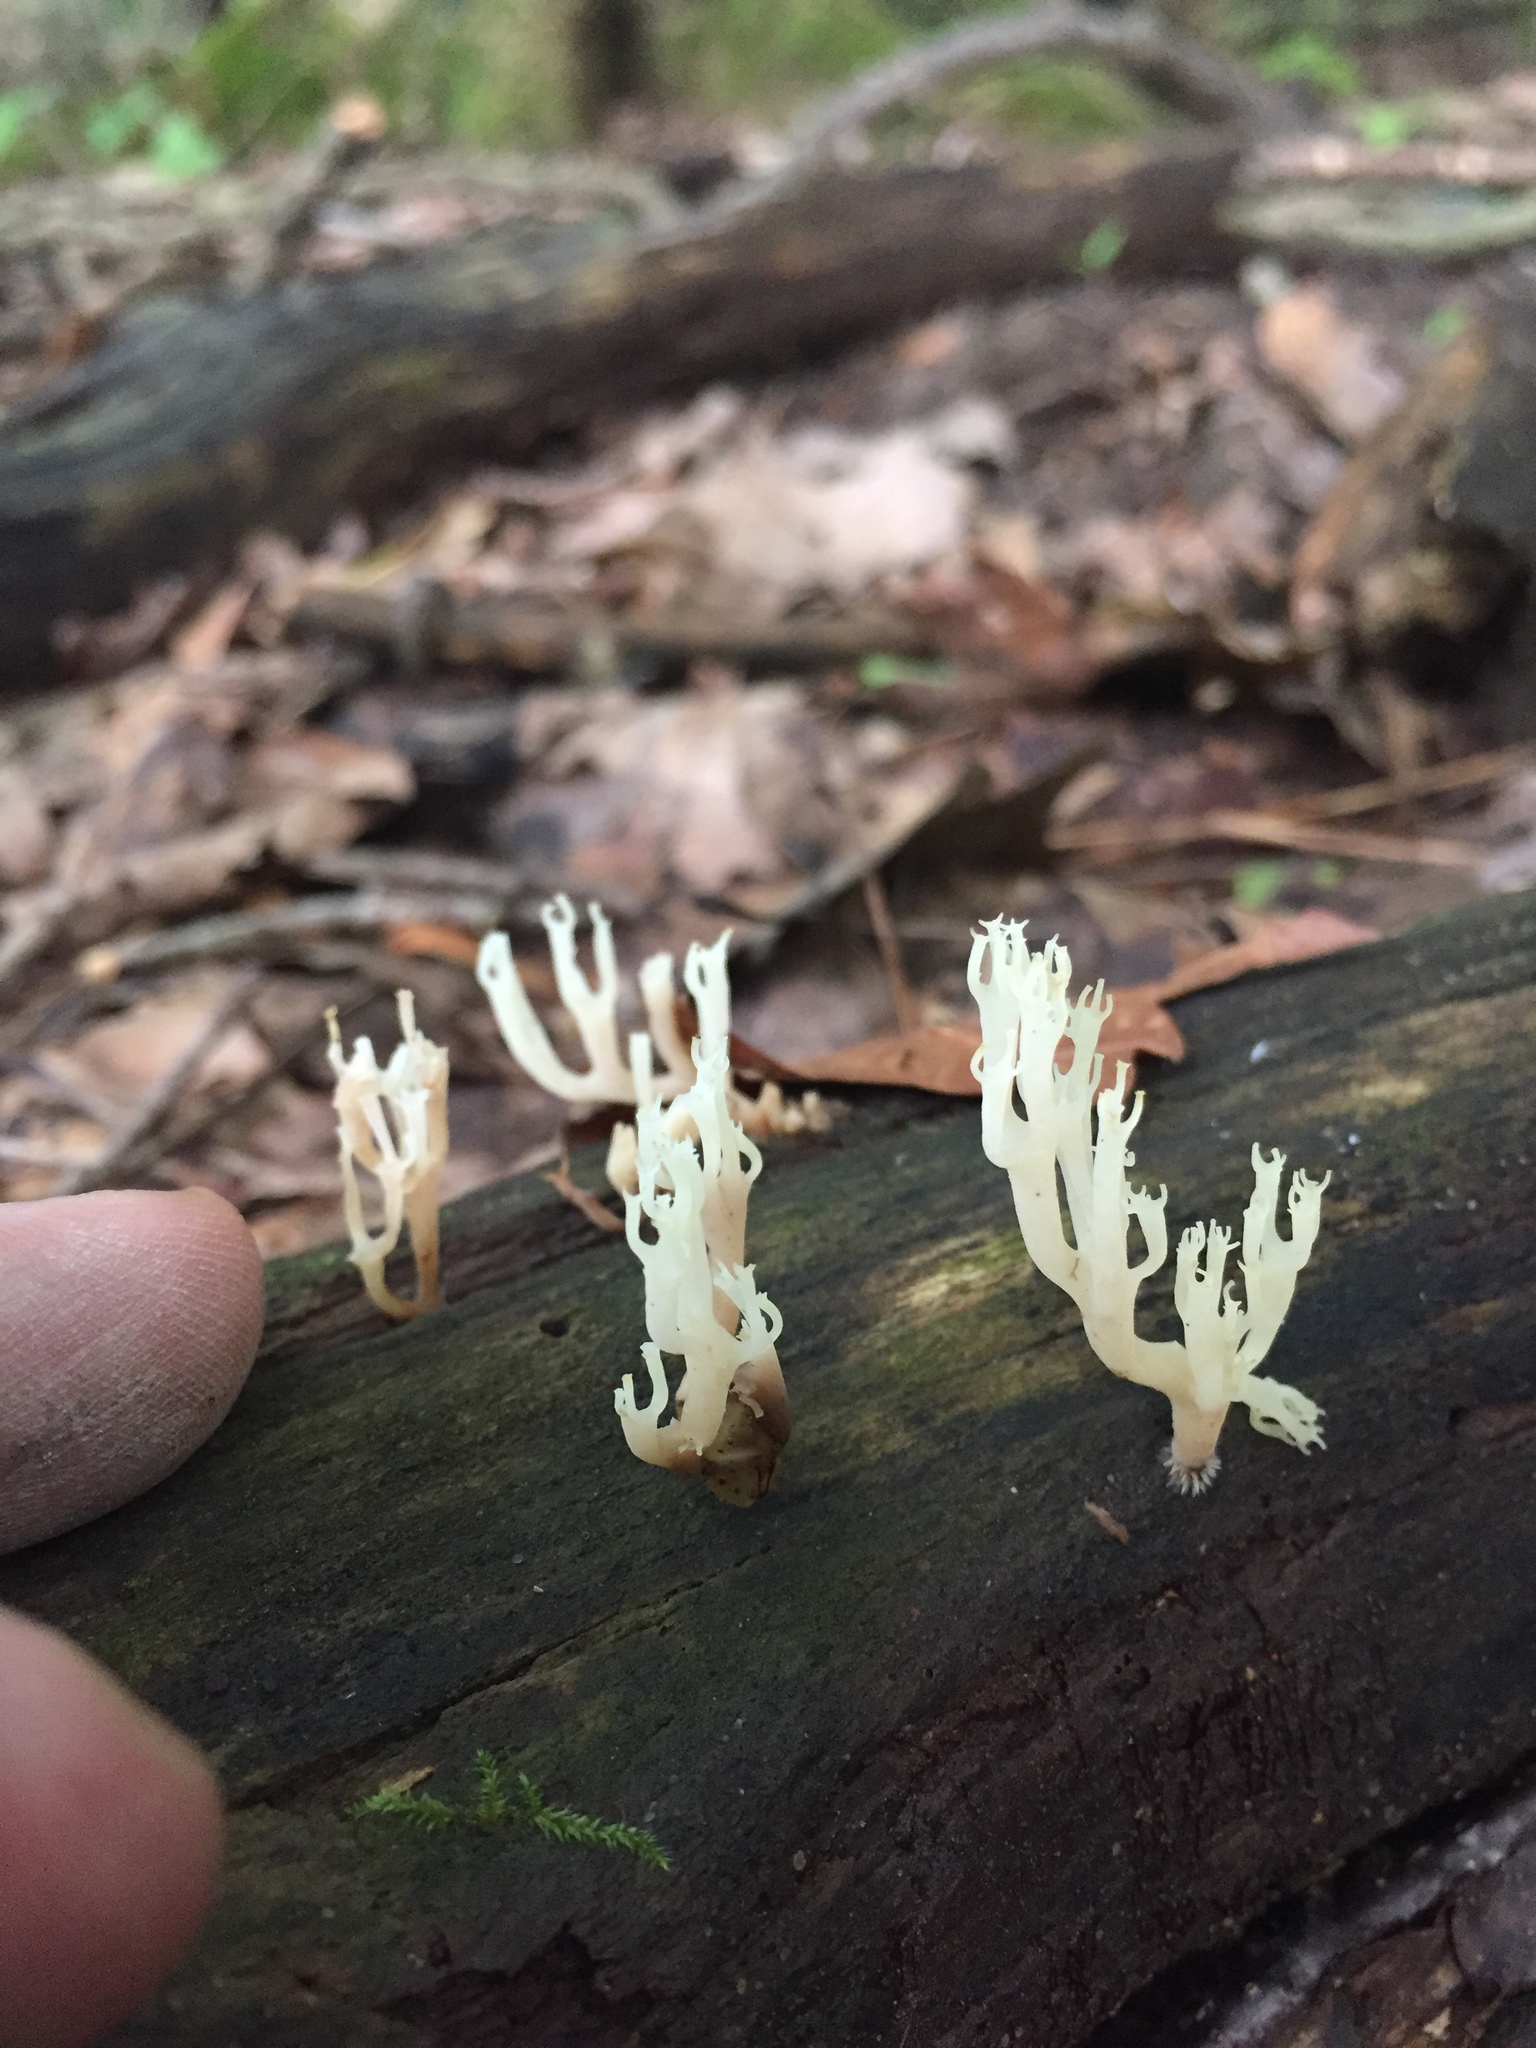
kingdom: Fungi
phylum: Basidiomycota
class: Agaricomycetes
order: Russulales
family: Auriscalpiaceae
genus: Artomyces
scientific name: Artomyces pyxidatus
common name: Crown-tipped coral fungus
